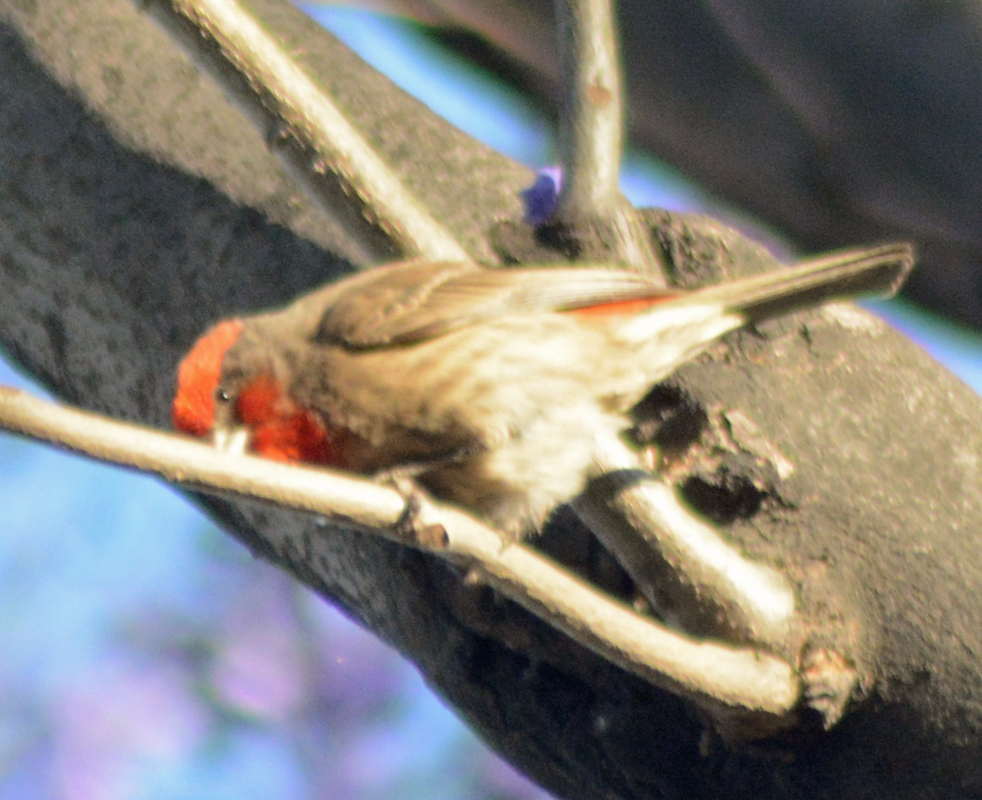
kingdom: Animalia
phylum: Chordata
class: Aves
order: Passeriformes
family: Fringillidae
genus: Haemorhous
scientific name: Haemorhous mexicanus
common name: House finch
